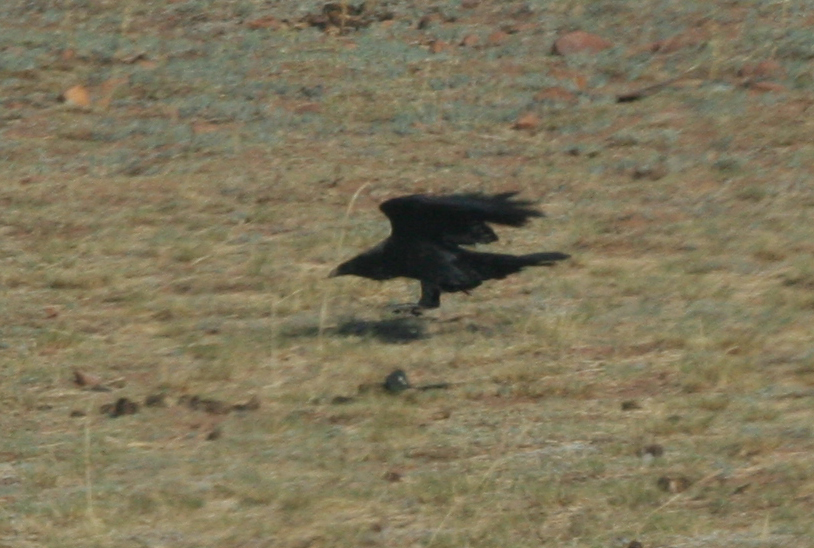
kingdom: Animalia
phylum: Chordata
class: Aves
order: Passeriformes
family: Corvidae
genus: Corvus
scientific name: Corvus corax
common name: Common raven
